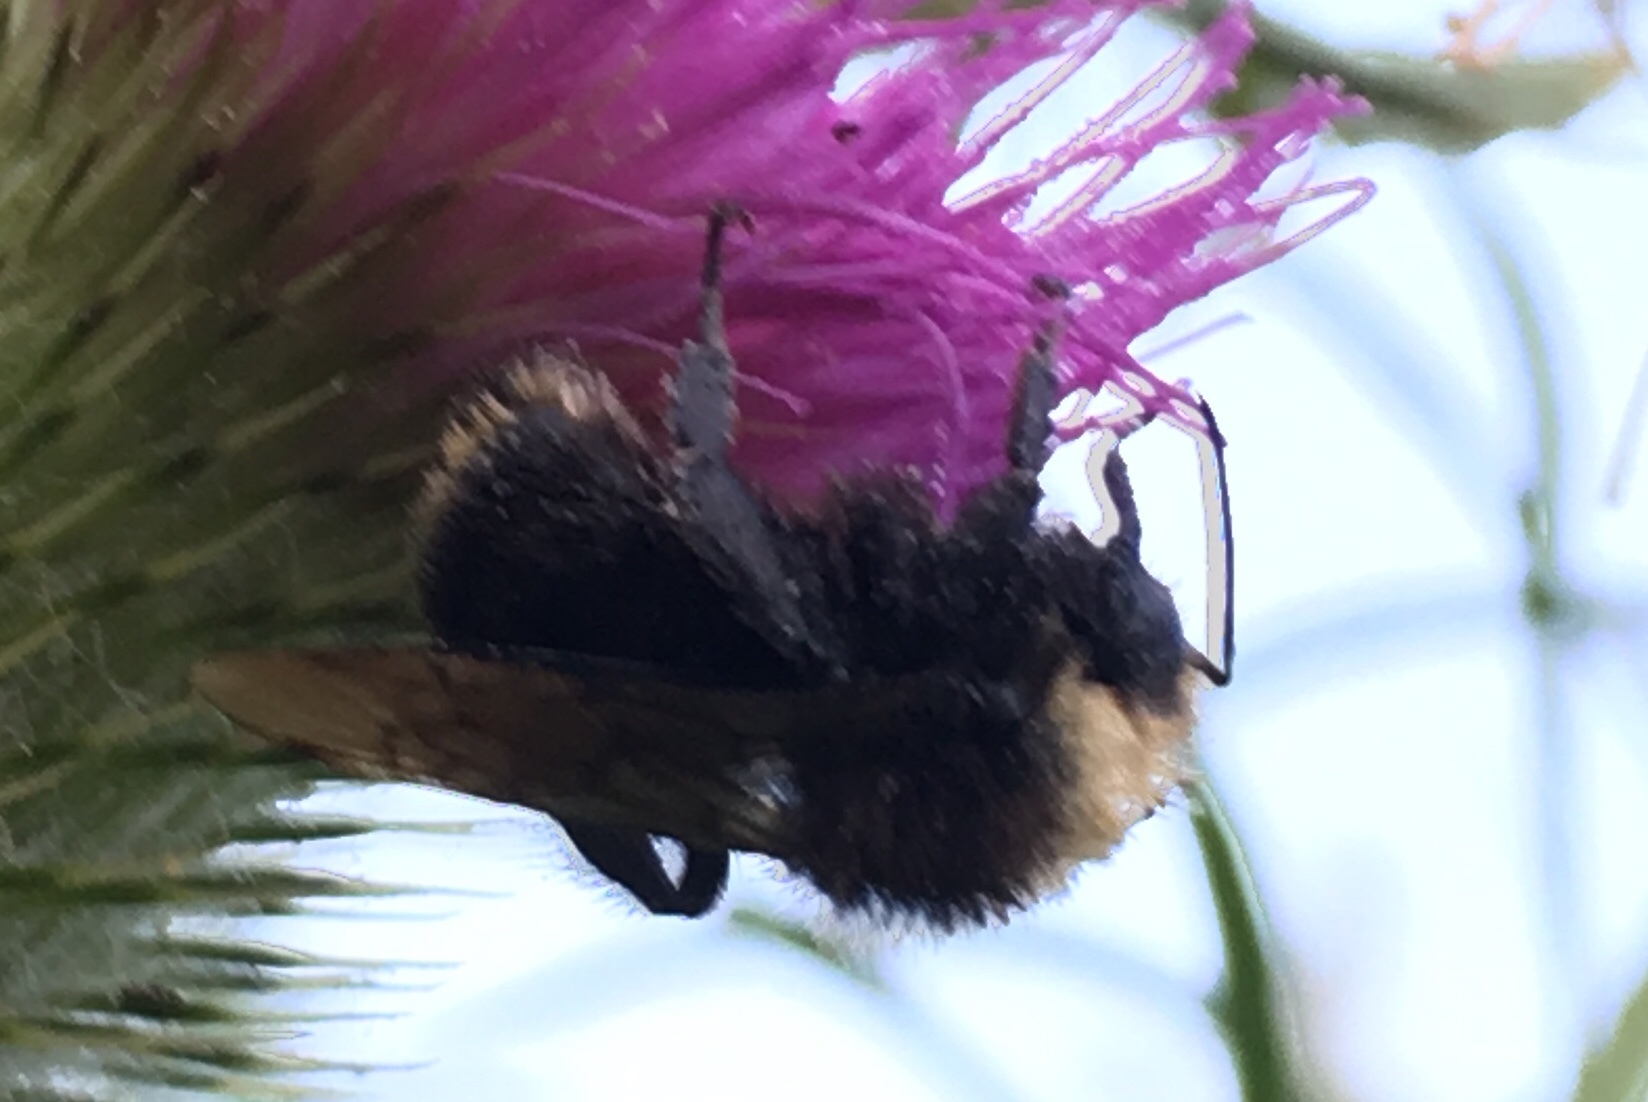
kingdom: Animalia
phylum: Arthropoda
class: Insecta
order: Hymenoptera
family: Apidae
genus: Bombus
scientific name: Bombus vosnesenskii
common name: Vosnesensky bumble bee
